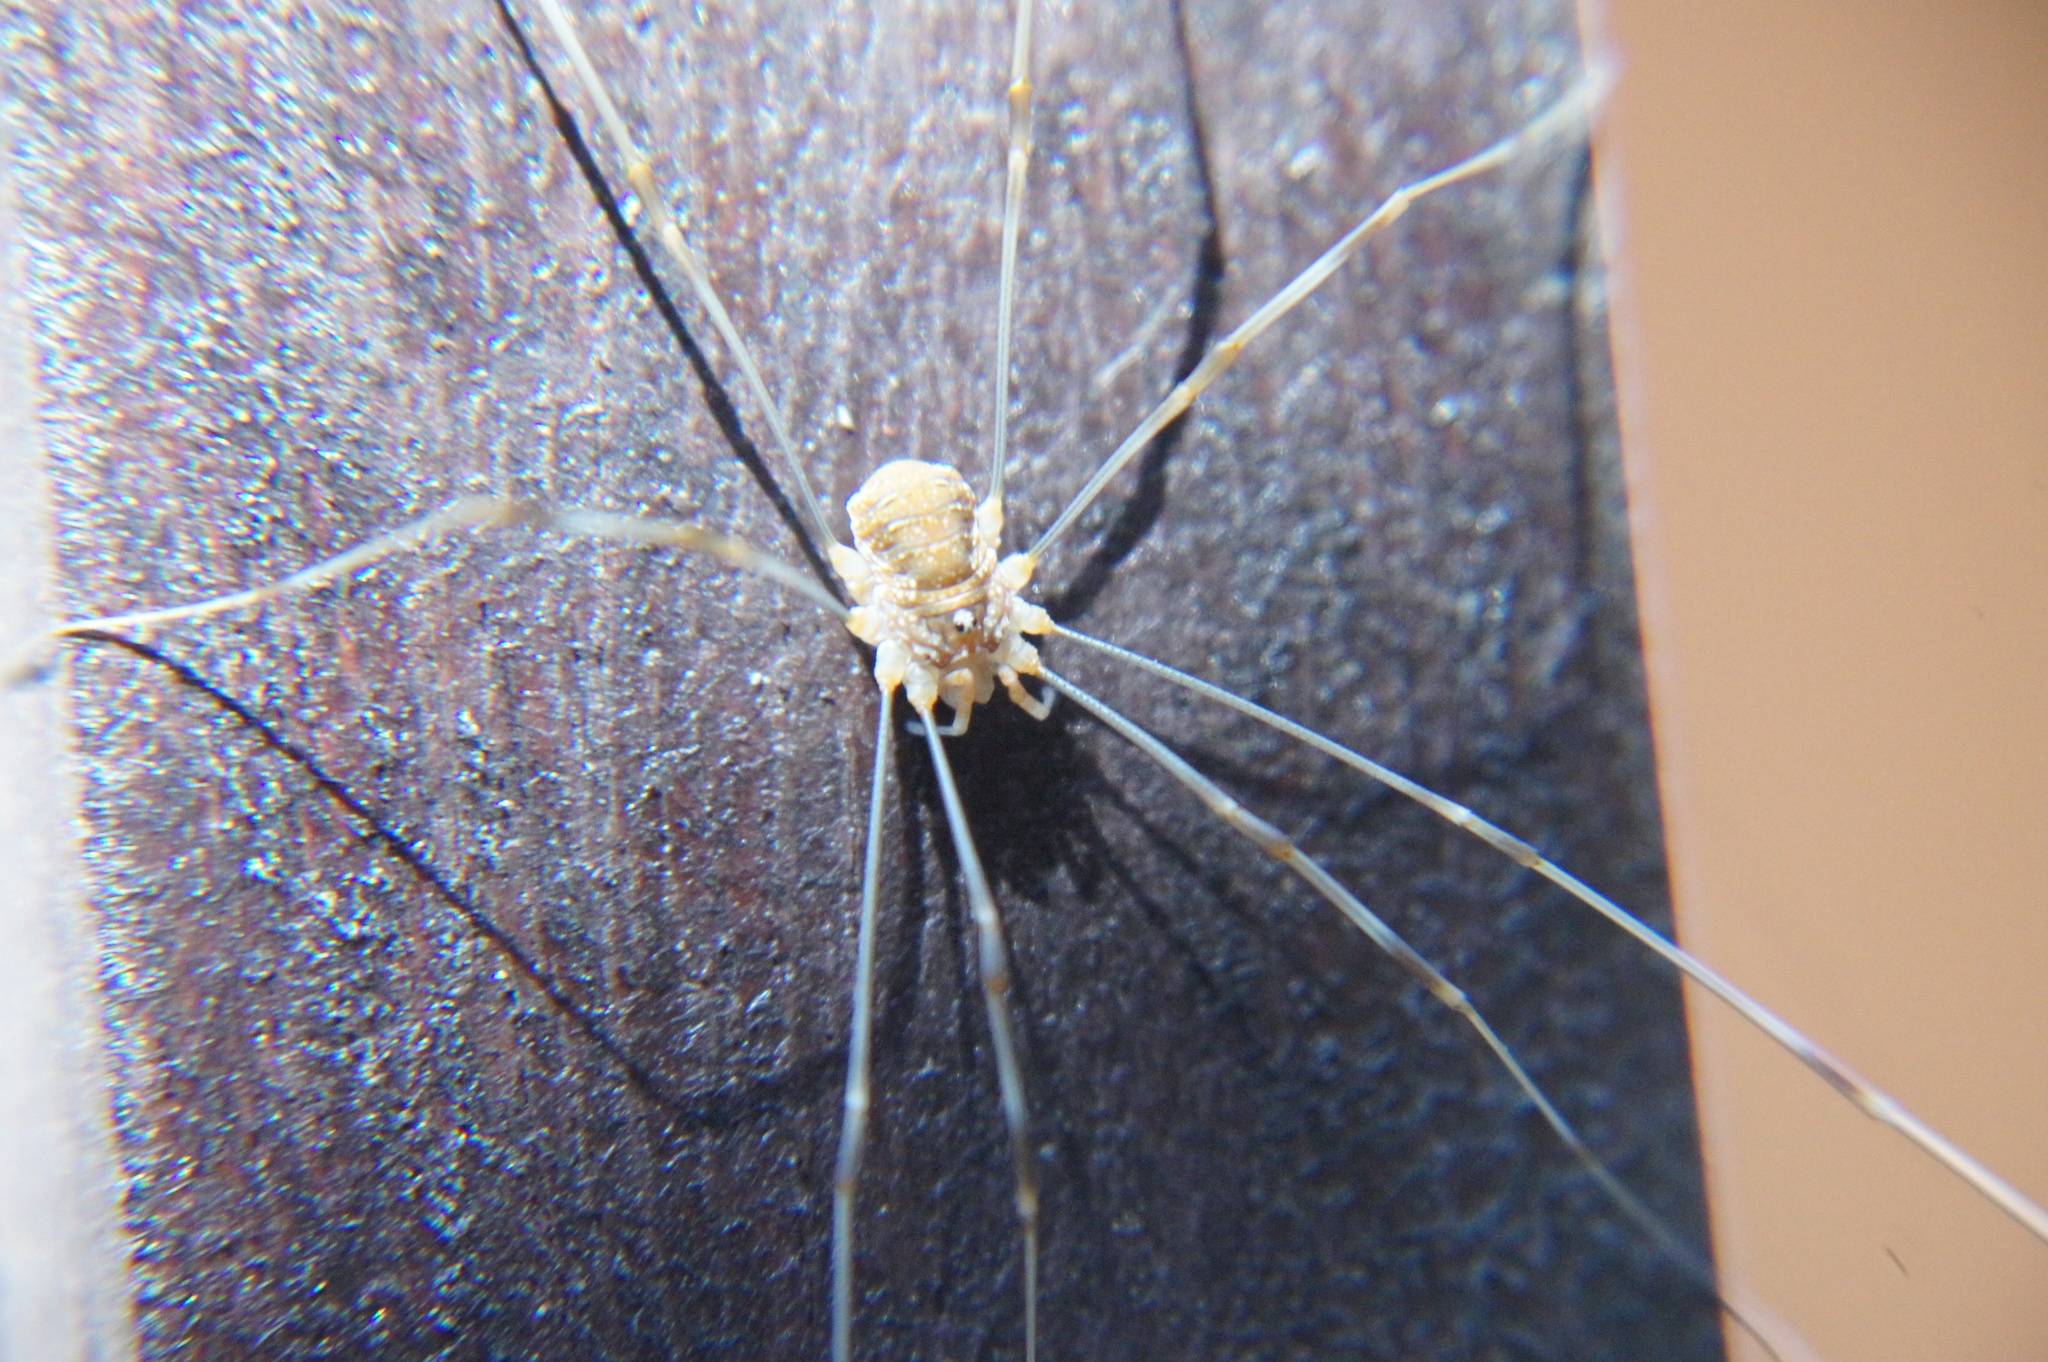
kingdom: Animalia
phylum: Arthropoda
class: Arachnida
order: Opiliones
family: Phalangiidae
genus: Opilio
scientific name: Opilio canestrinii
